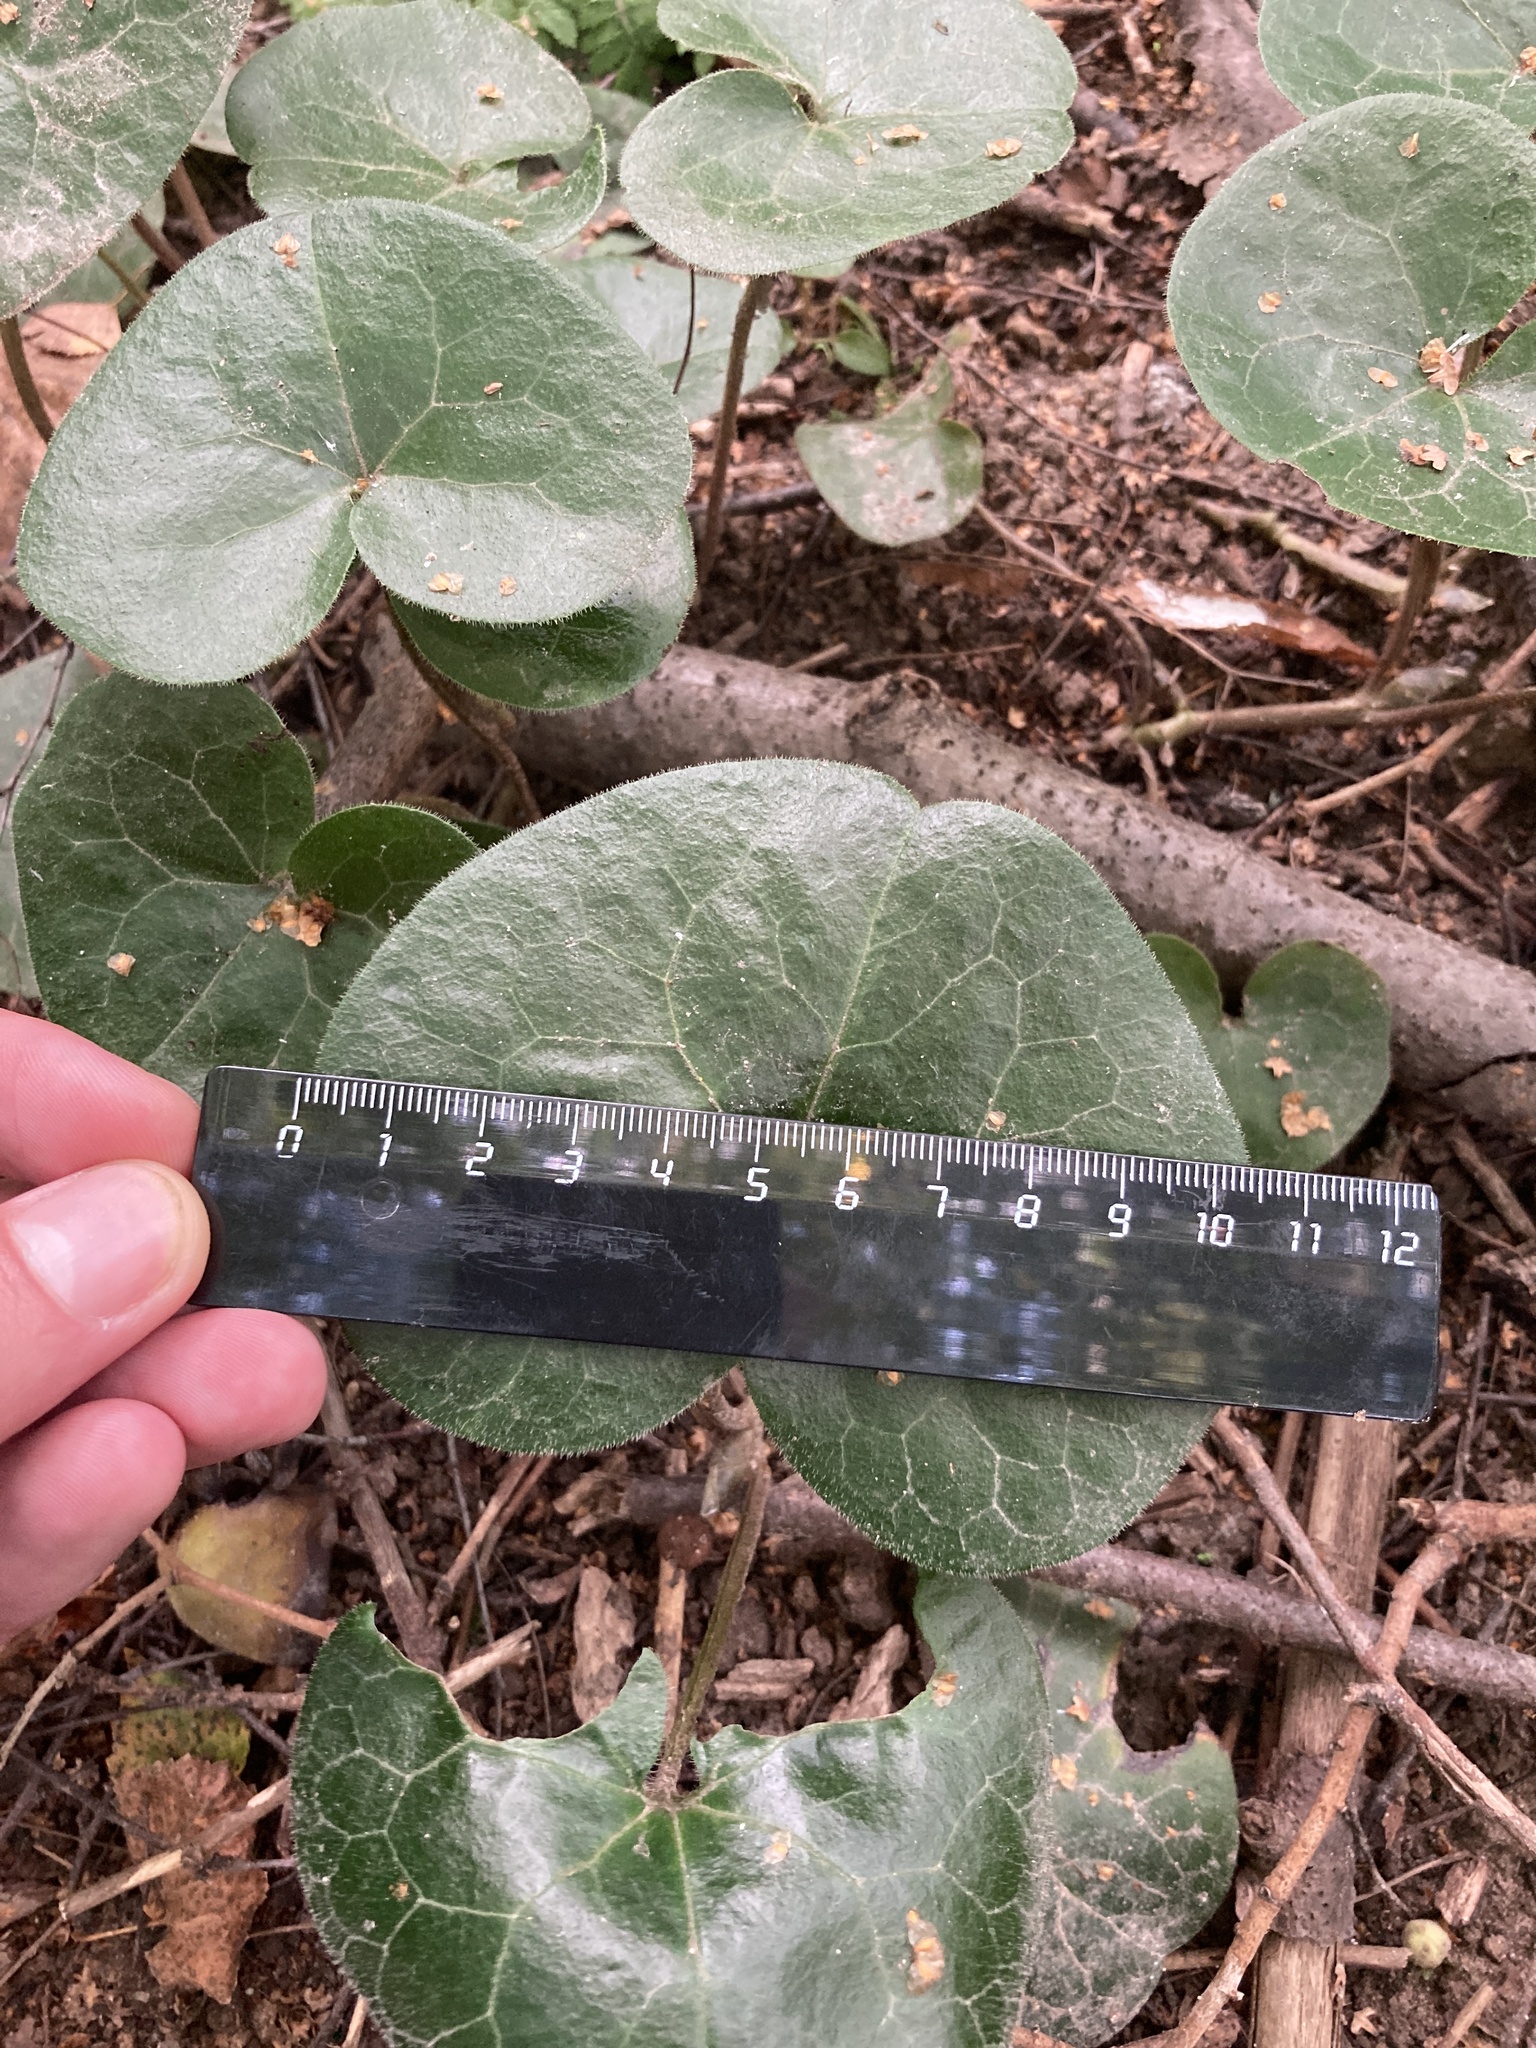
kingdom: Plantae
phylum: Tracheophyta
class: Magnoliopsida
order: Piperales
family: Aristolochiaceae
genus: Asarum
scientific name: Asarum europaeum
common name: Asarabacca
